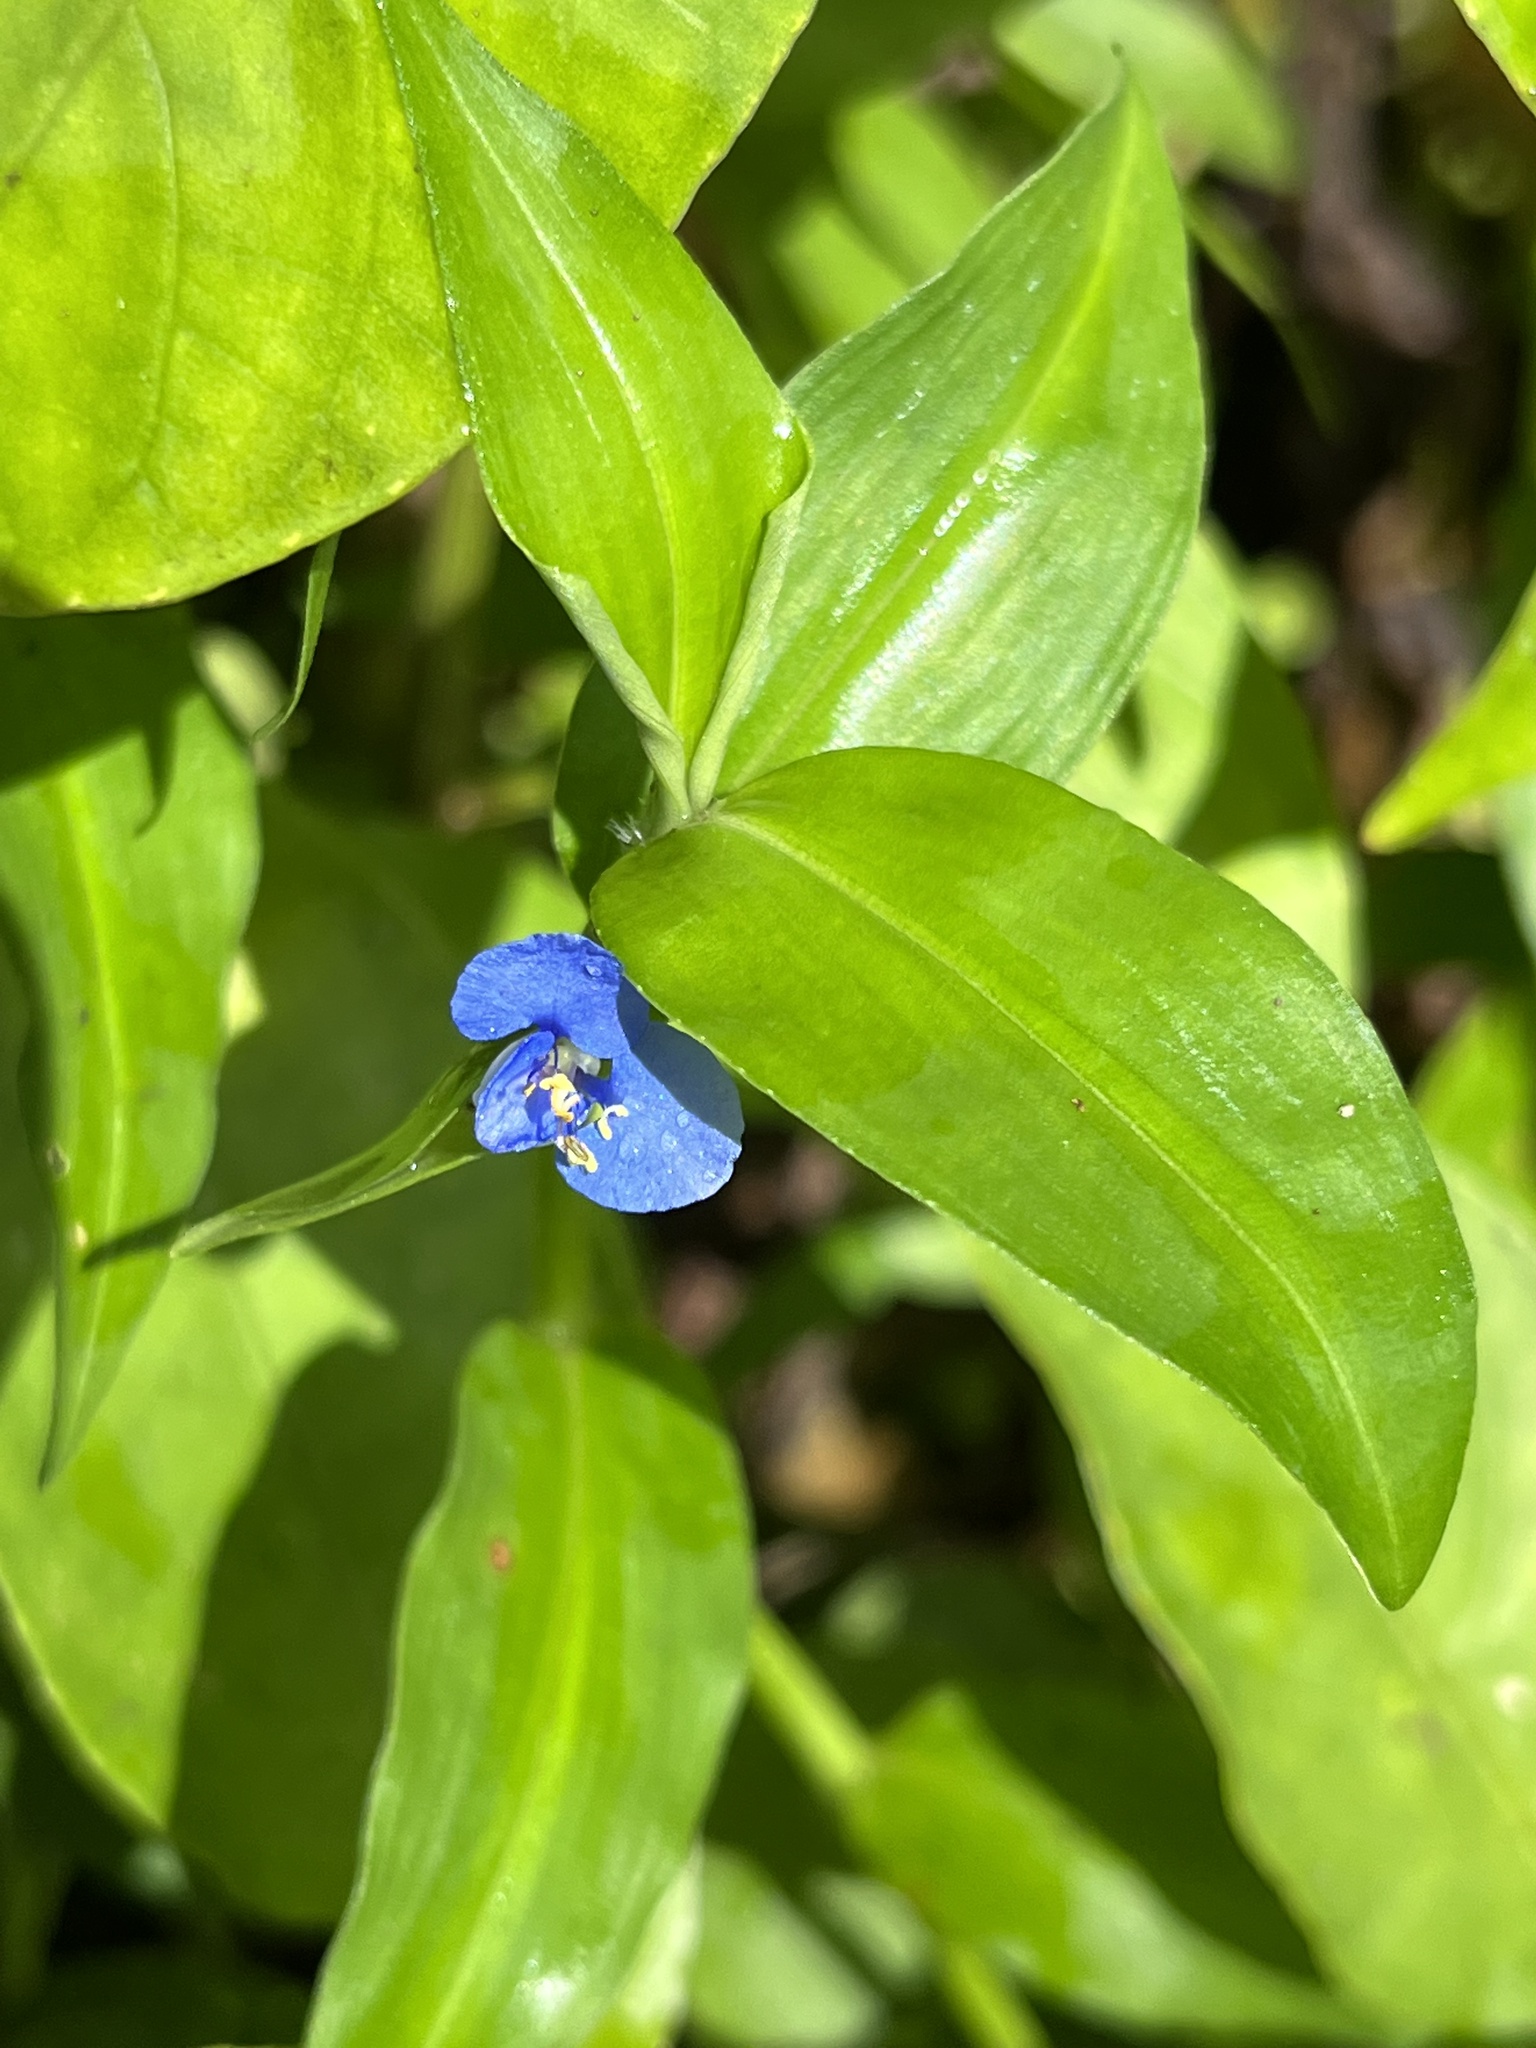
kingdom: Plantae
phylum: Tracheophyta
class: Liliopsida
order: Commelinales
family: Commelinaceae
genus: Commelina
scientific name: Commelina diffusa
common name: Climbing dayflower
